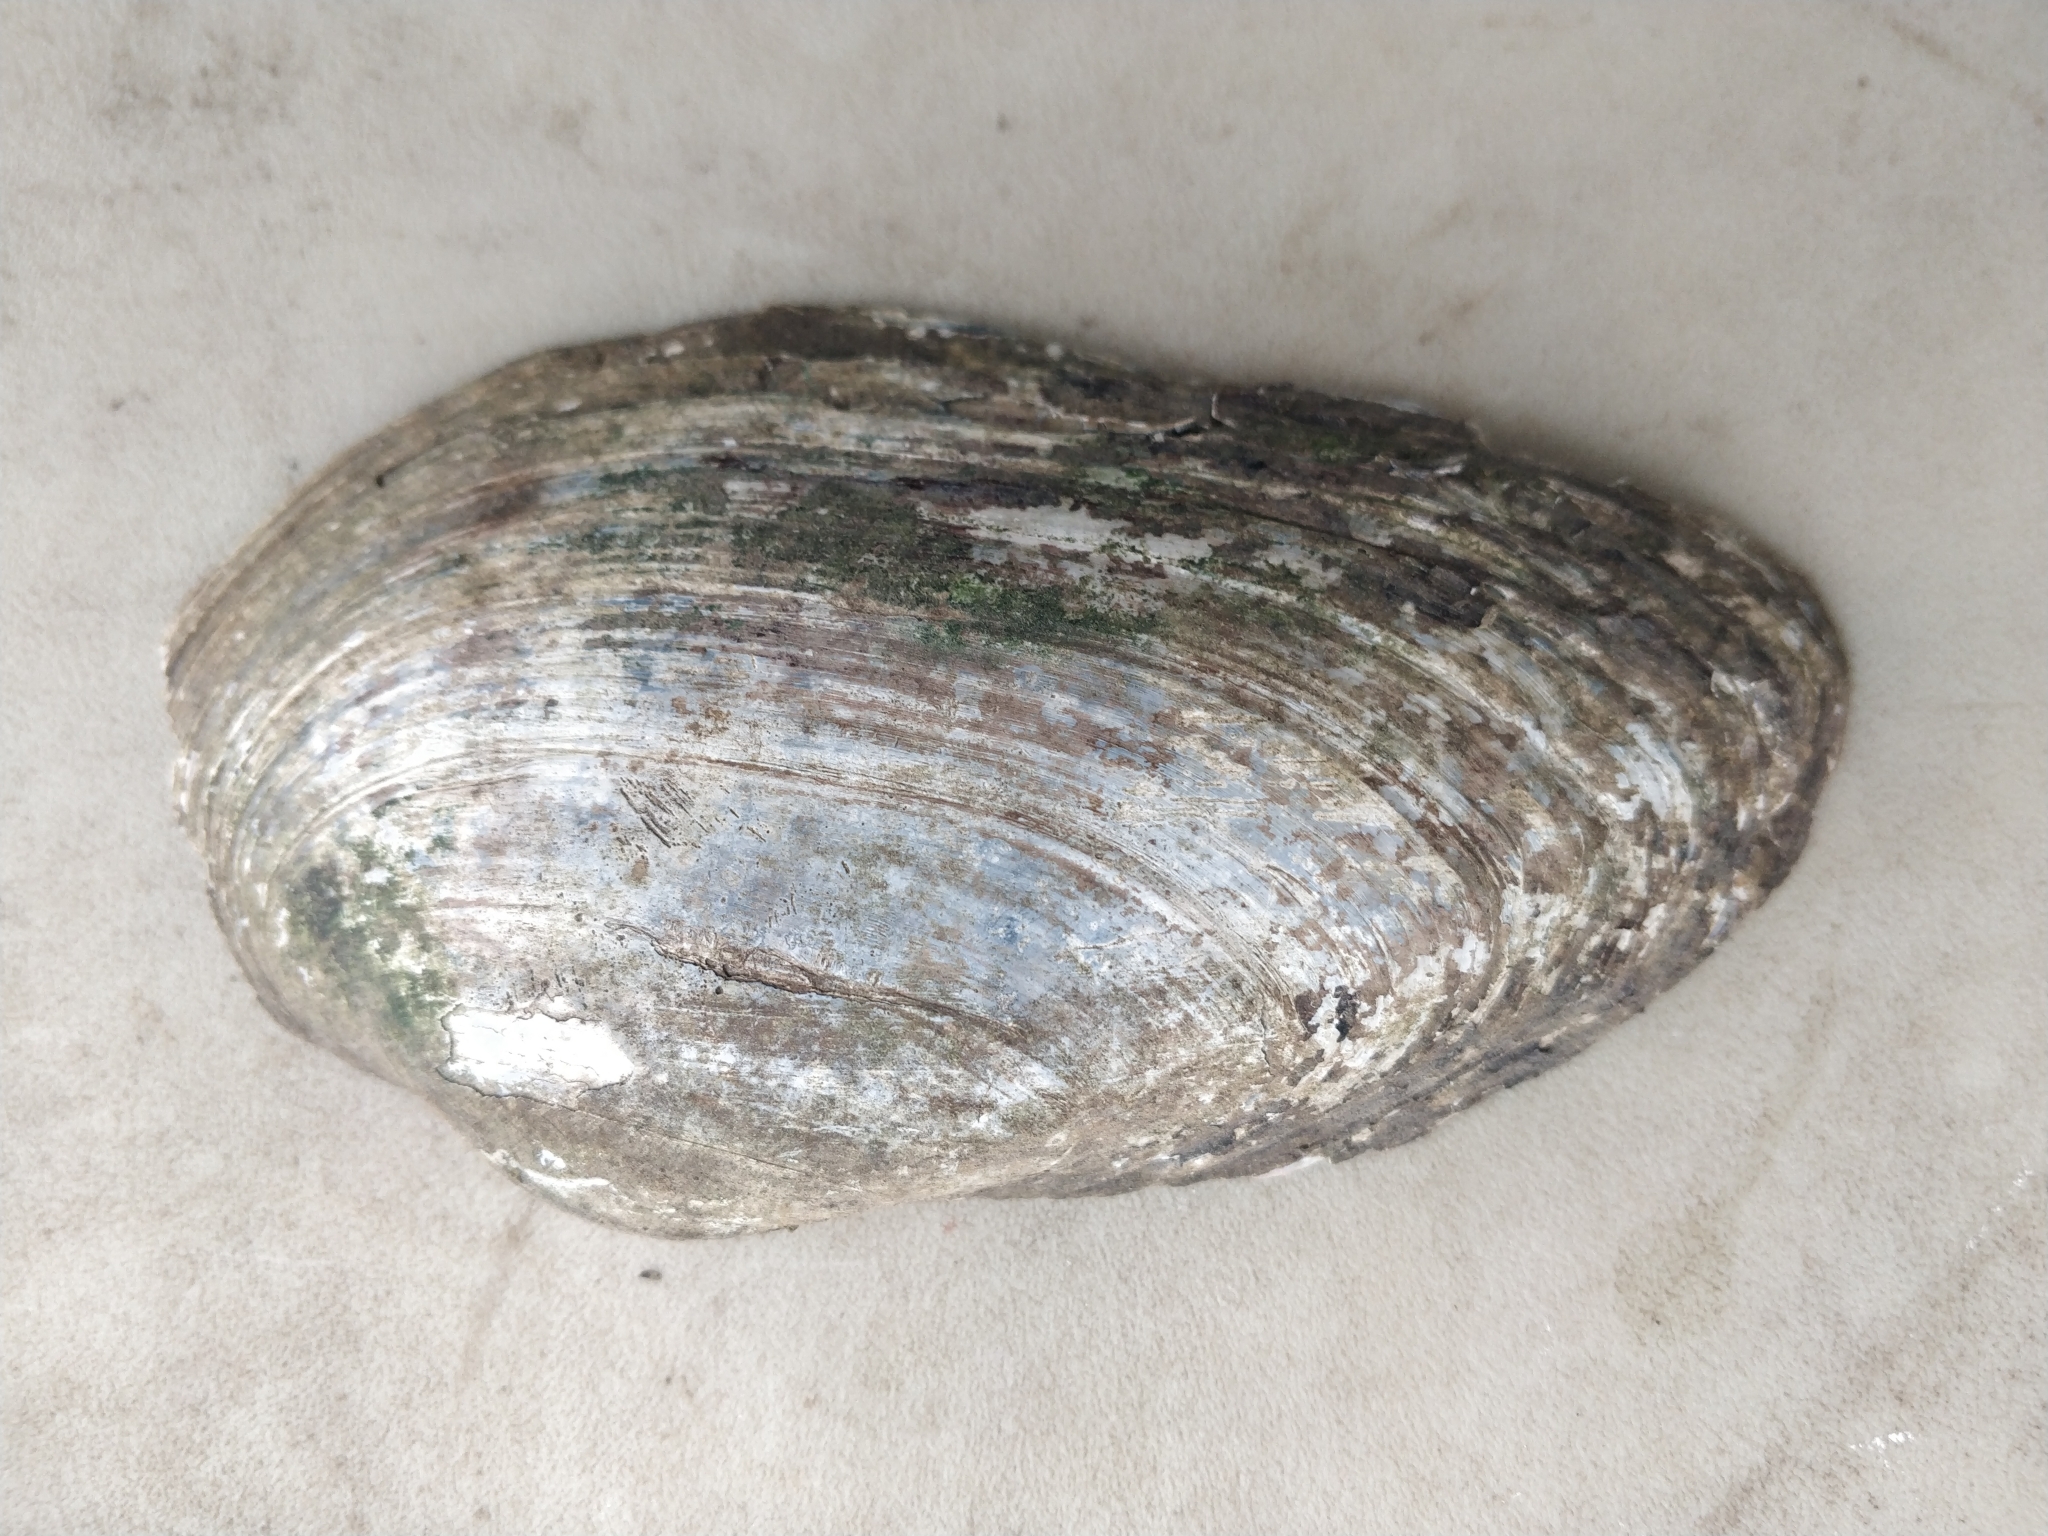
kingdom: Animalia
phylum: Mollusca
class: Bivalvia
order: Unionida
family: Unionidae
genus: Pyganodon
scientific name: Pyganodon grandis
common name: Giant floater
